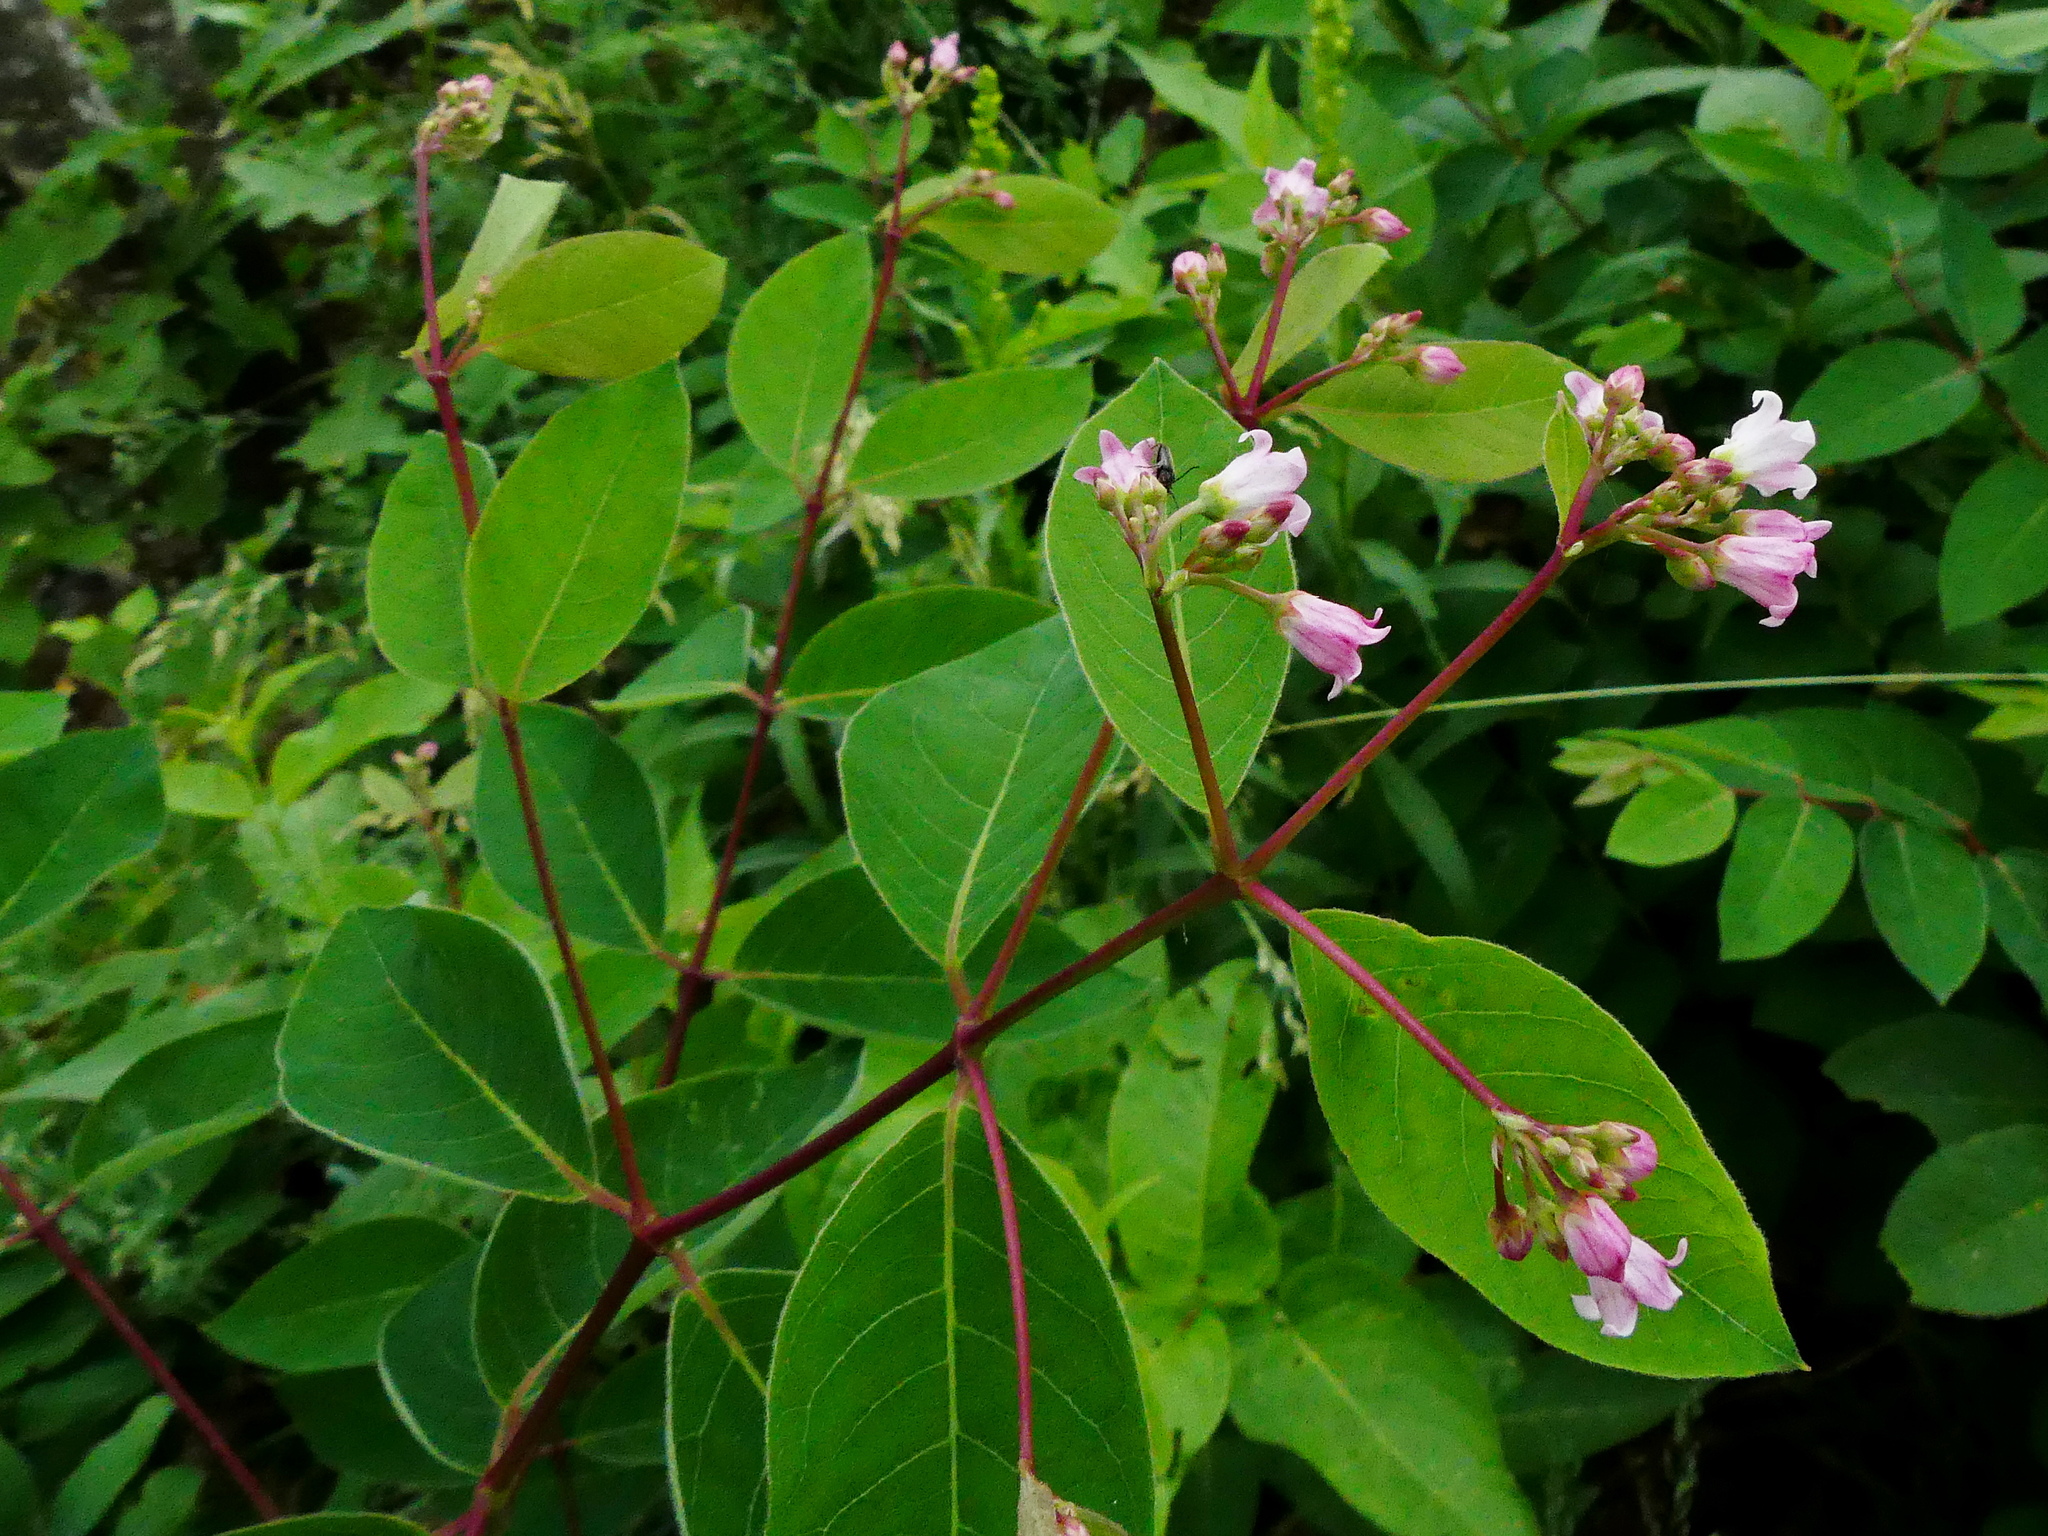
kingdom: Plantae
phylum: Tracheophyta
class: Magnoliopsida
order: Gentianales
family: Apocynaceae
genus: Apocynum
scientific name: Apocynum androsaemifolium
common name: Spreading dogbane
